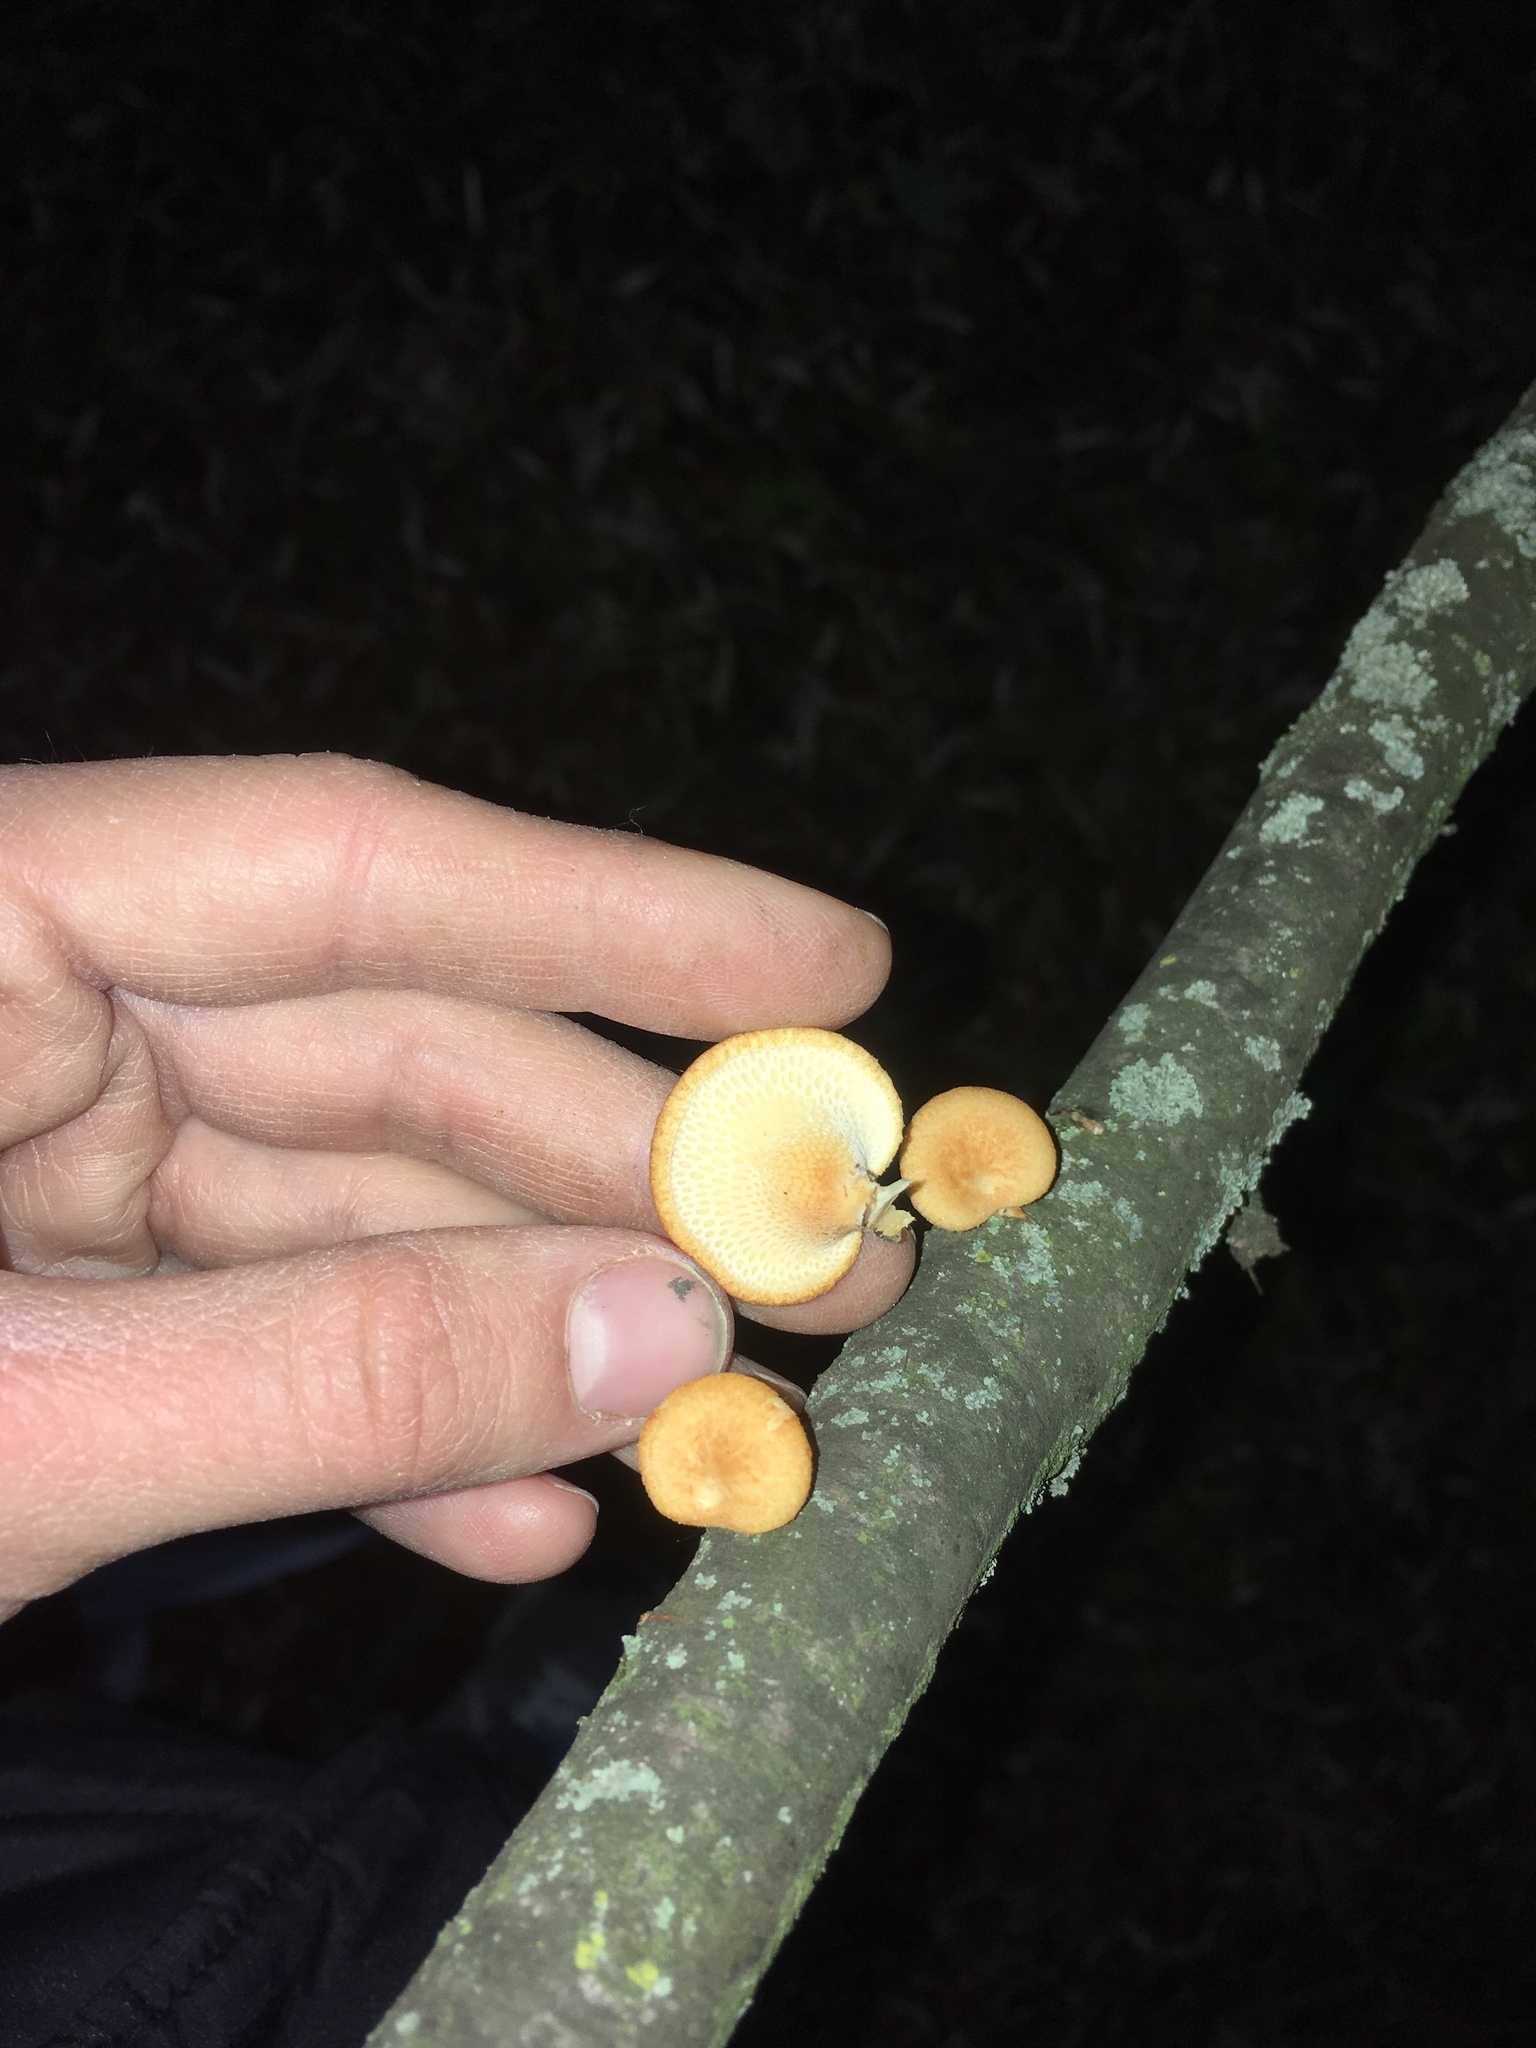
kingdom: Fungi
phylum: Basidiomycota
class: Agaricomycetes
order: Polyporales
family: Polyporaceae
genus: Neofavolus
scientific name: Neofavolus alveolaris
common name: Hexagonal-pored polypore
